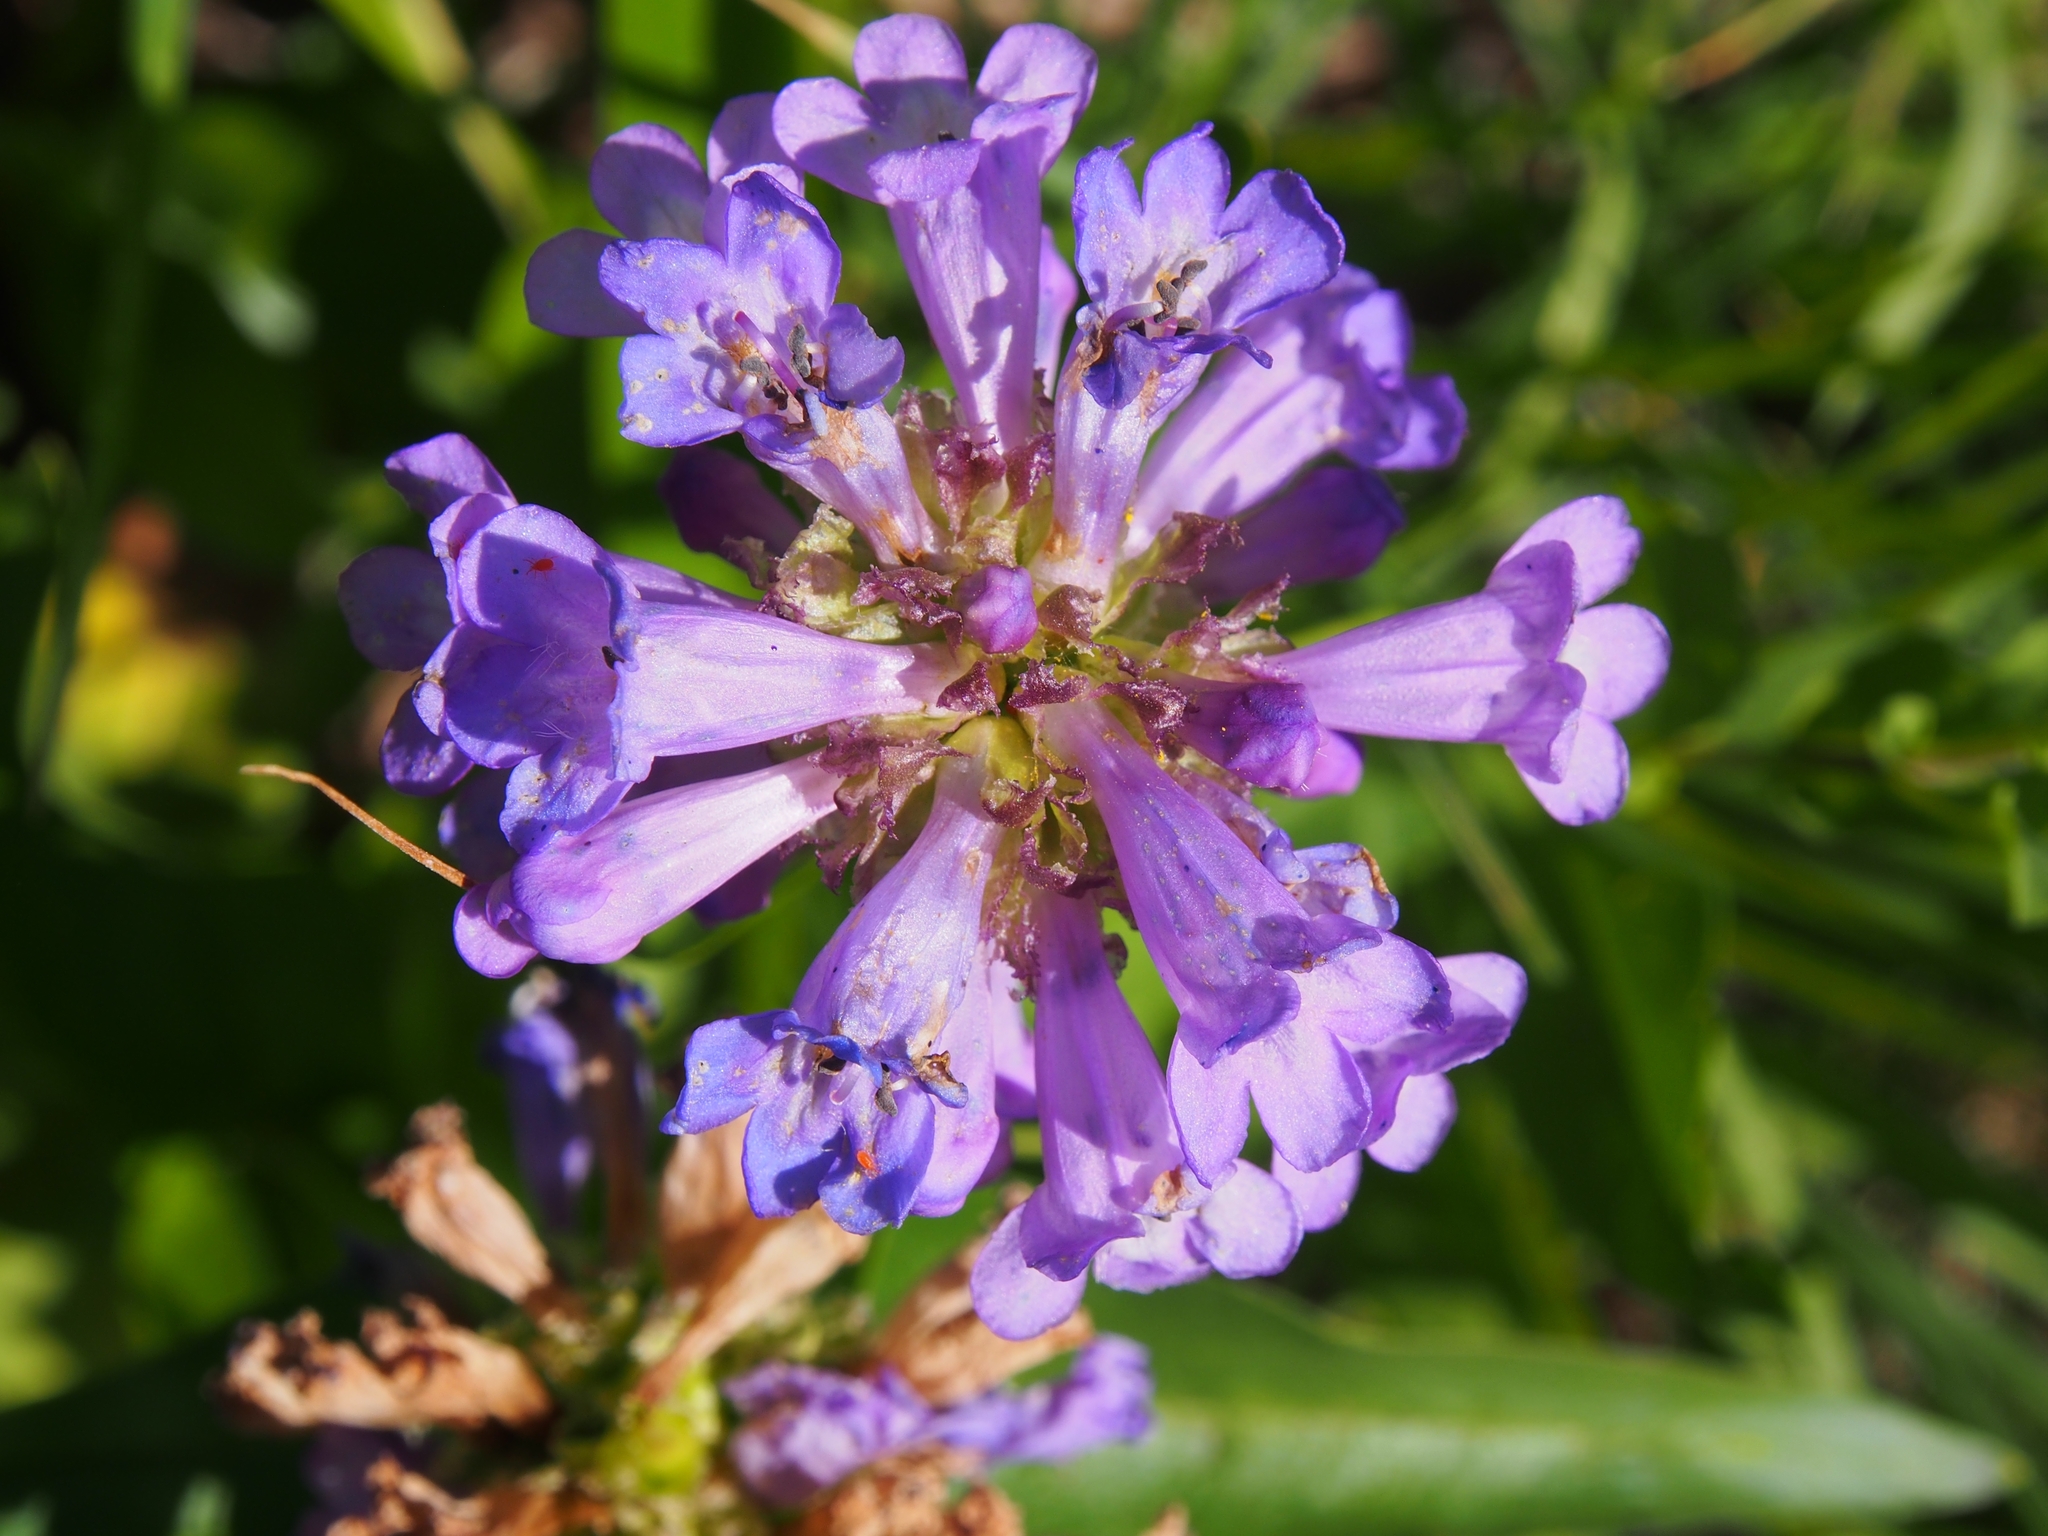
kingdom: Plantae
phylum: Tracheophyta
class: Magnoliopsida
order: Lamiales
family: Plantaginaceae
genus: Penstemon
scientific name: Penstemon procerus
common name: Small-flower penstemon
